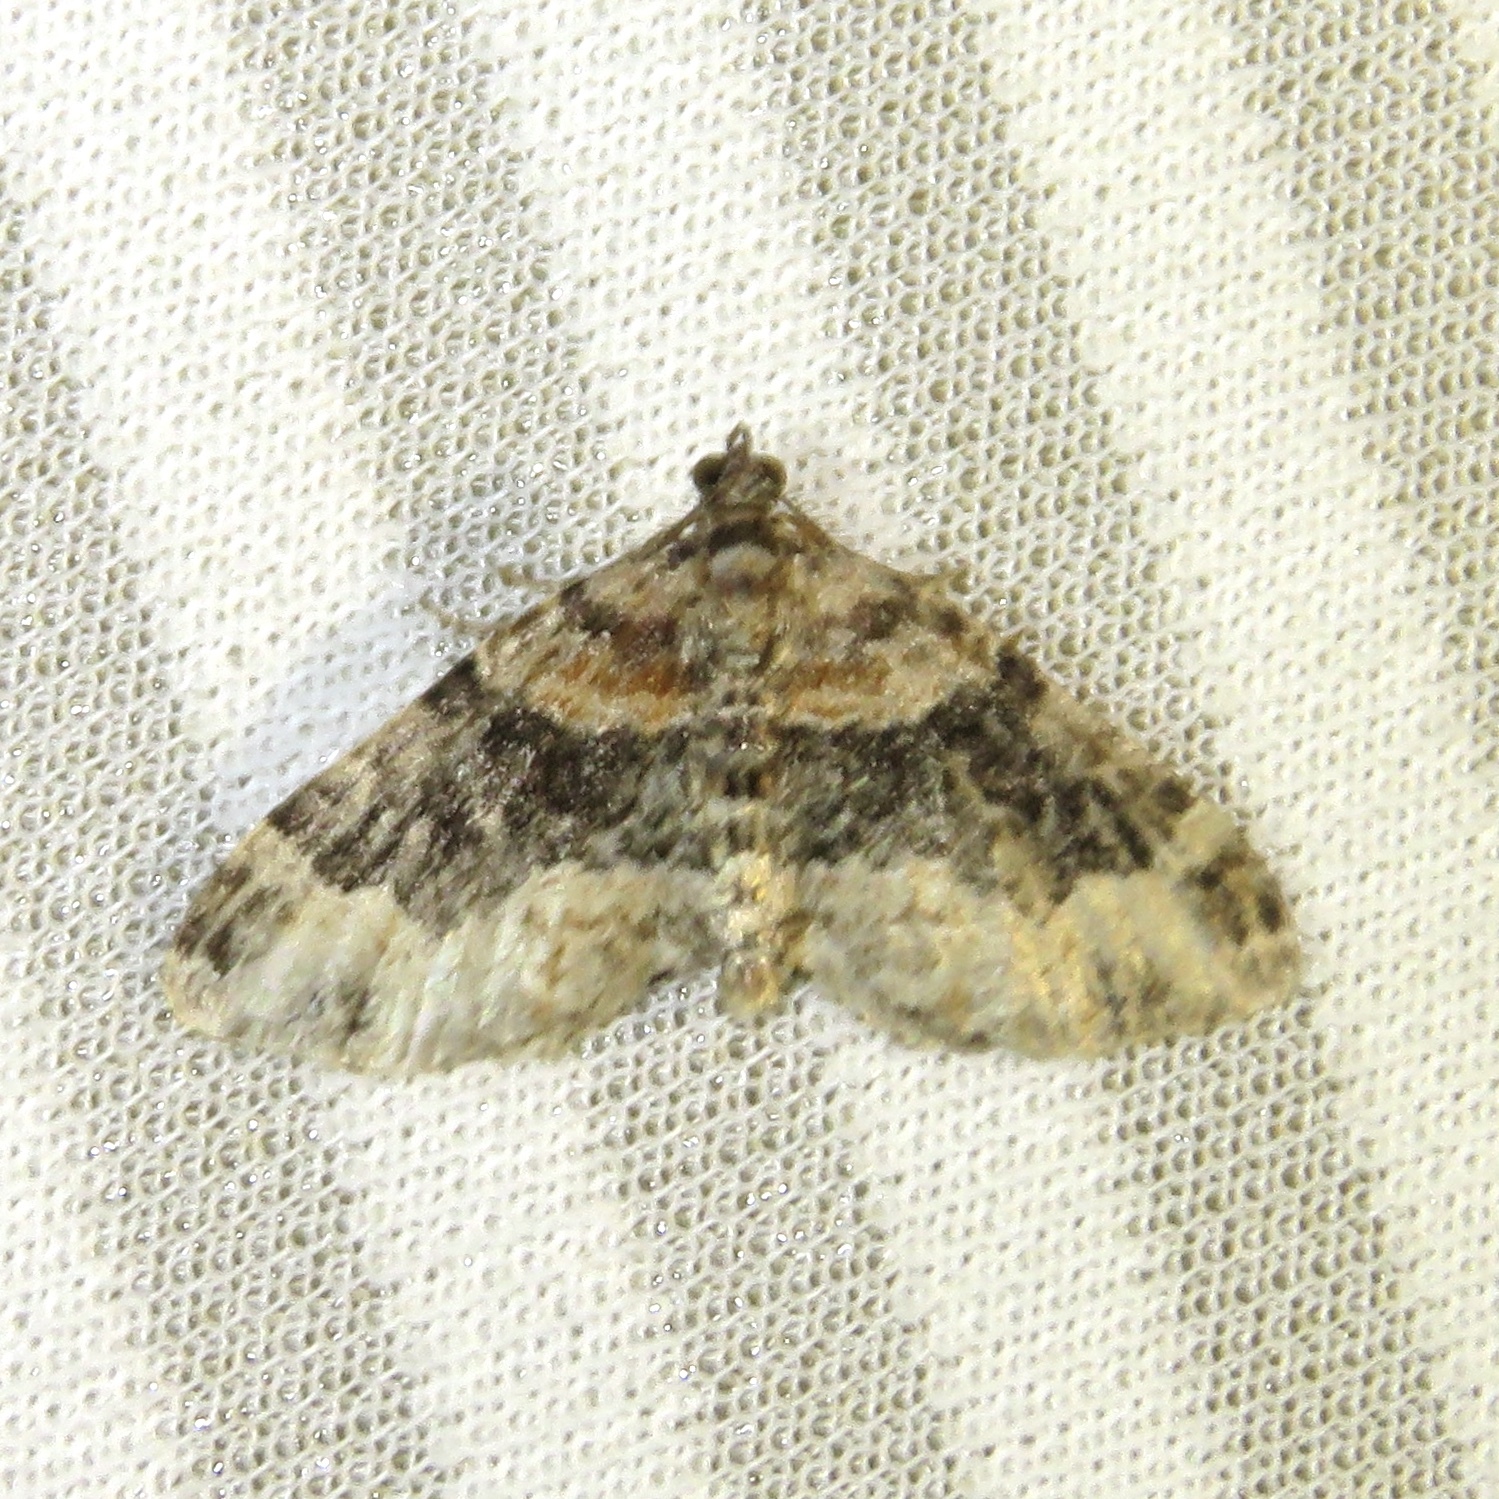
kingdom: Animalia
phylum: Arthropoda
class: Insecta
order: Lepidoptera
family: Geometridae
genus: Xanthorhoe
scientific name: Xanthorhoe ferrugata
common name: Dark-barred twin-spot carpet
